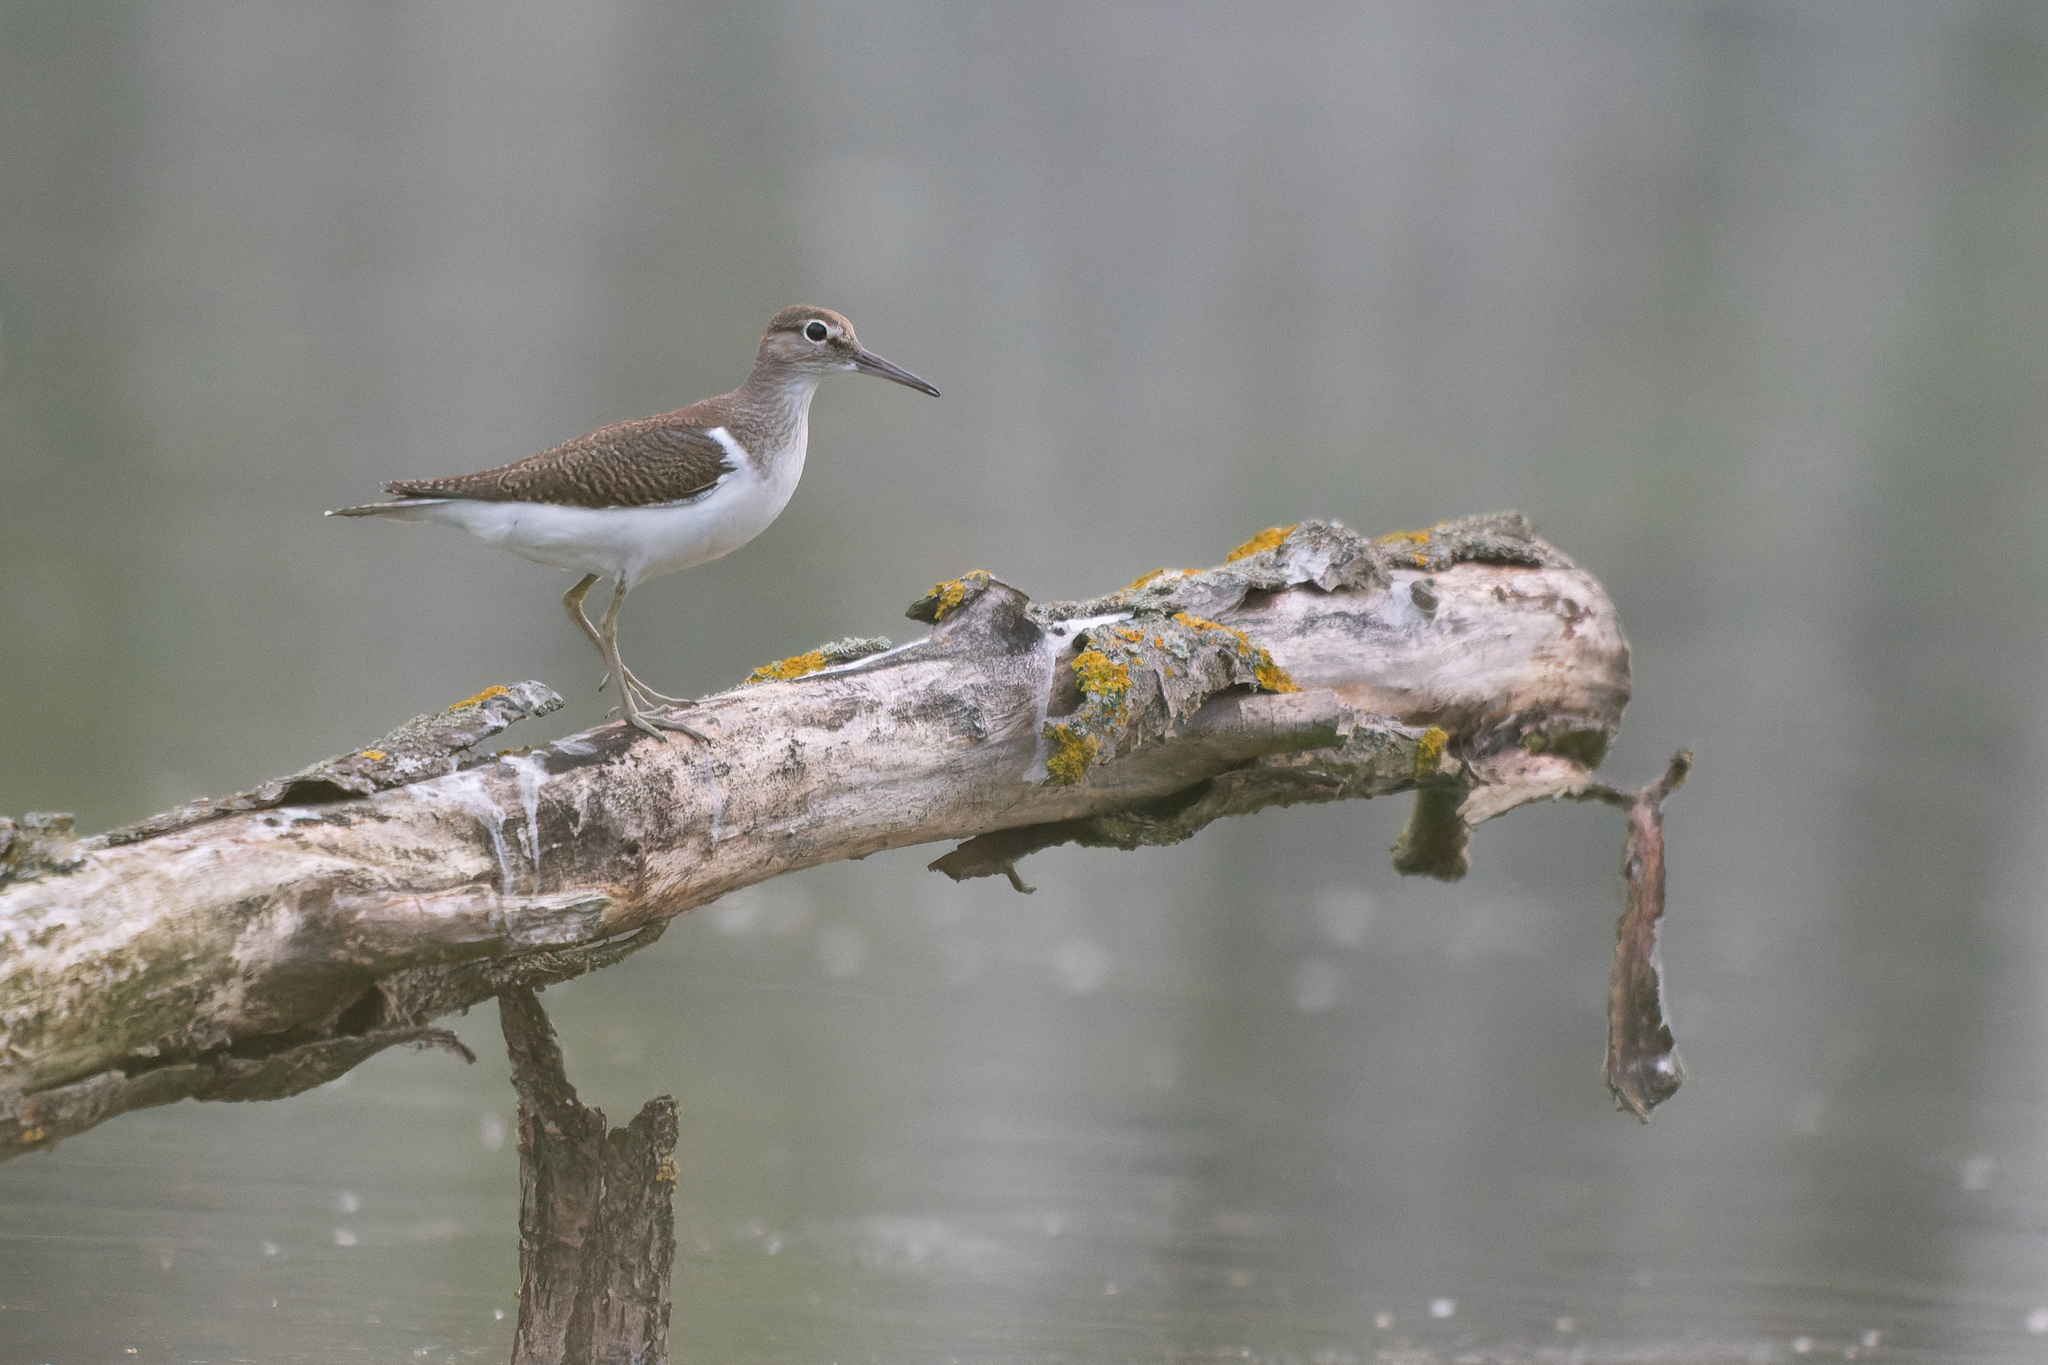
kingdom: Animalia
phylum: Chordata
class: Aves
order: Charadriiformes
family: Scolopacidae
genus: Actitis
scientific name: Actitis hypoleucos
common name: Common sandpiper
